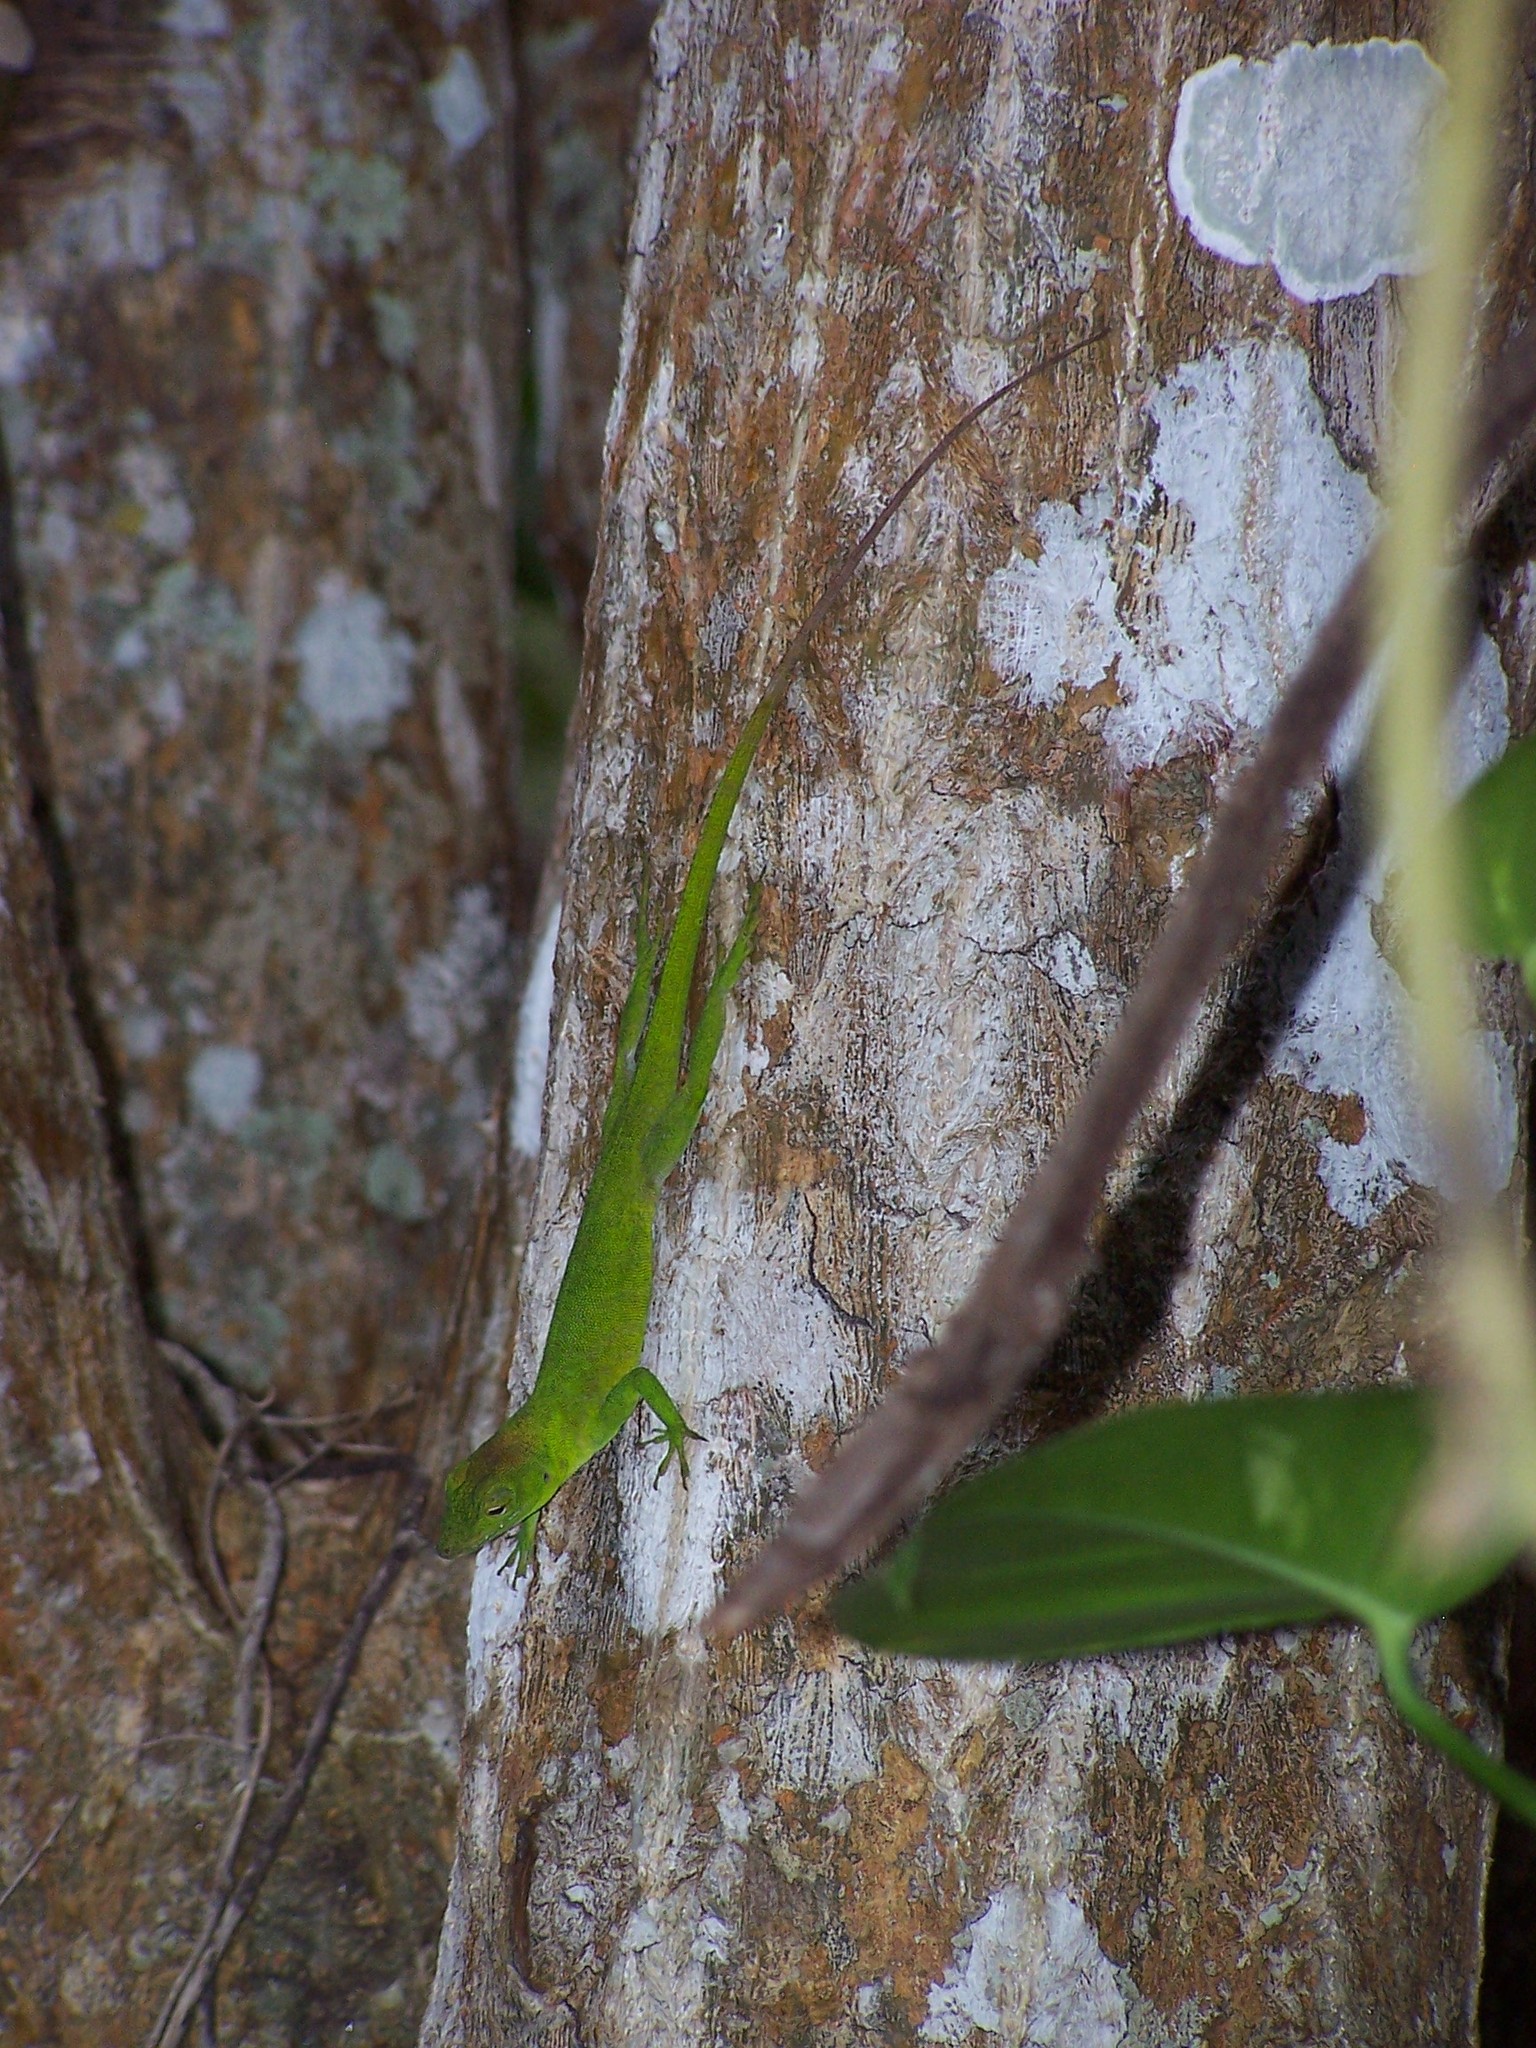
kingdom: Animalia
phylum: Chordata
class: Squamata
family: Dactyloidae
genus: Anolis
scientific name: Anolis garmani
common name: Jamaican giant anole
